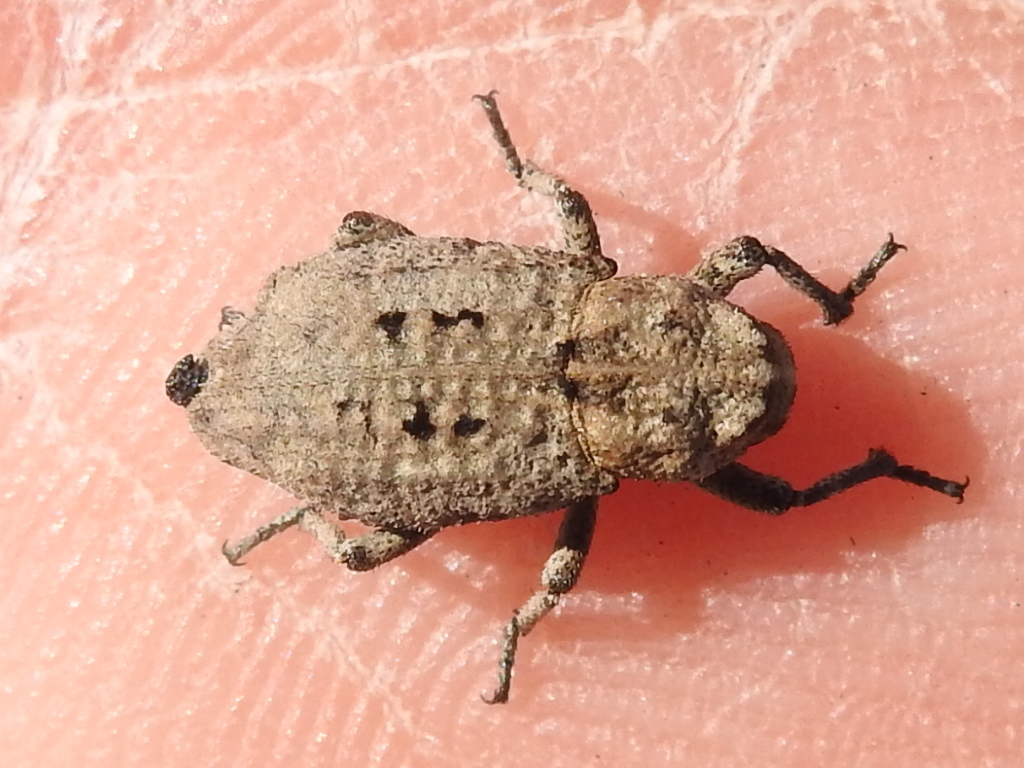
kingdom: Animalia
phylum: Arthropoda
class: Insecta
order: Coleoptera
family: Curculionidae
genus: Thecesternus
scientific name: Thecesternus maculosus
